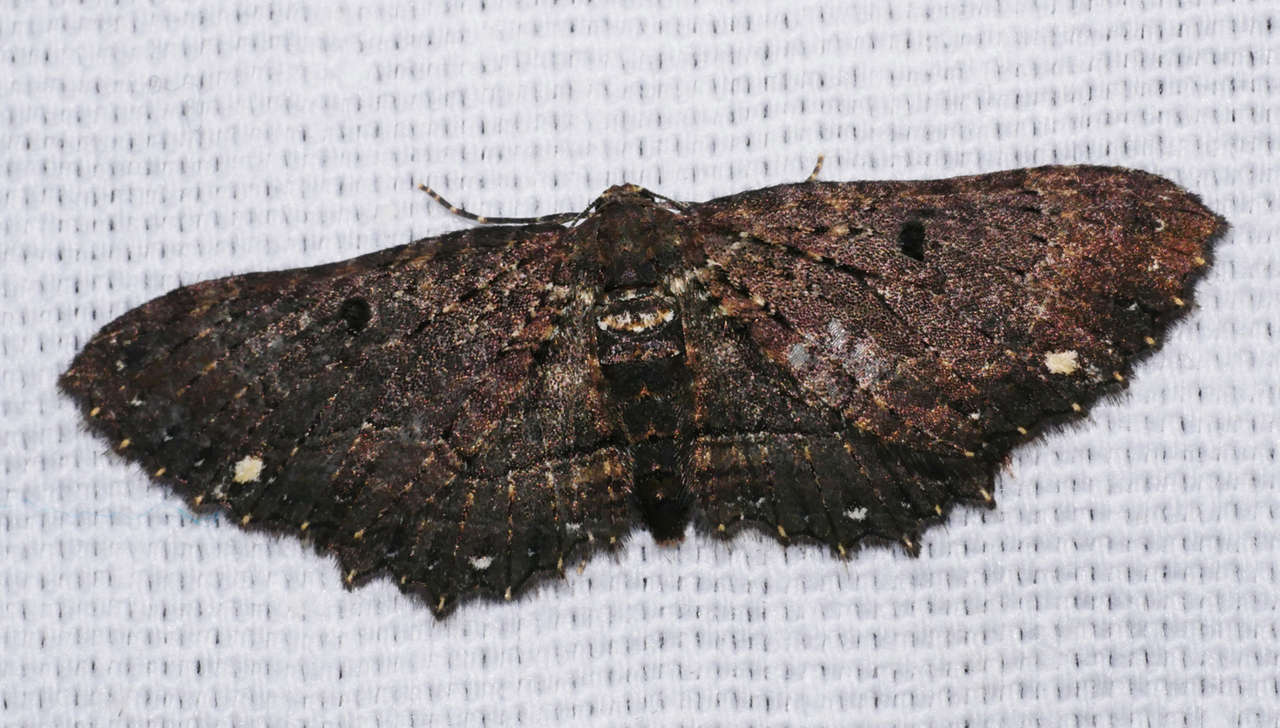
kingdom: Animalia
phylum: Arthropoda
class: Insecta
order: Lepidoptera
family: Geometridae
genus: Eccymatoge
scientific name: Eccymatoge callizona
